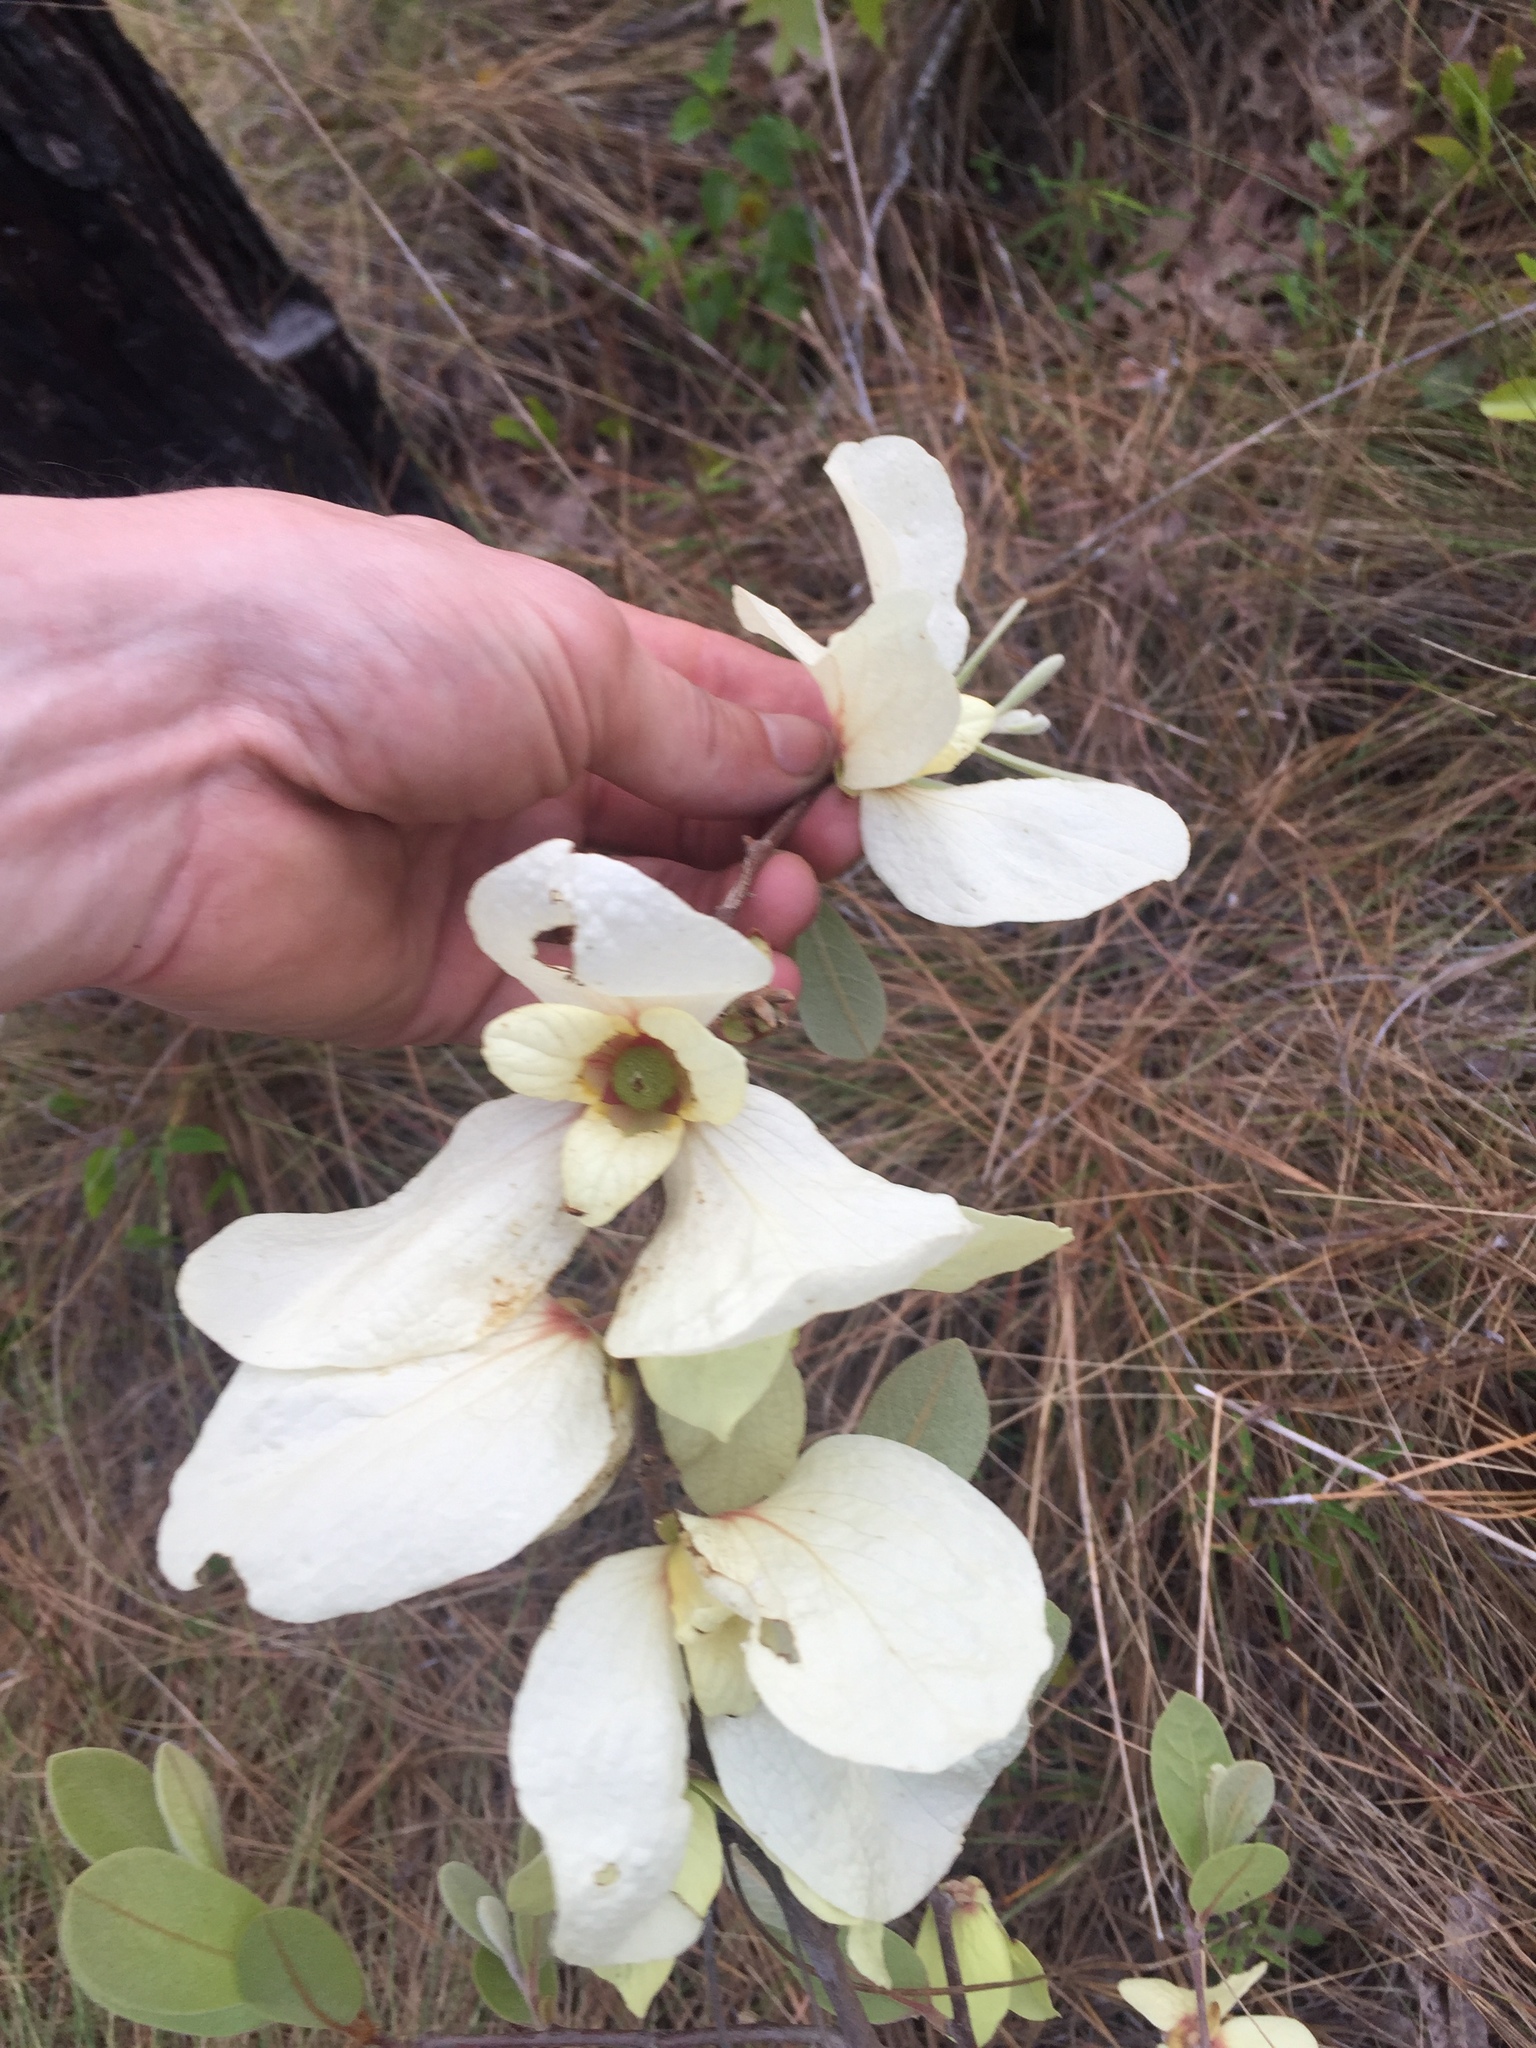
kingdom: Plantae
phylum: Tracheophyta
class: Magnoliopsida
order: Magnoliales
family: Annonaceae
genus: Asimina
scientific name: Asimina speciosa
